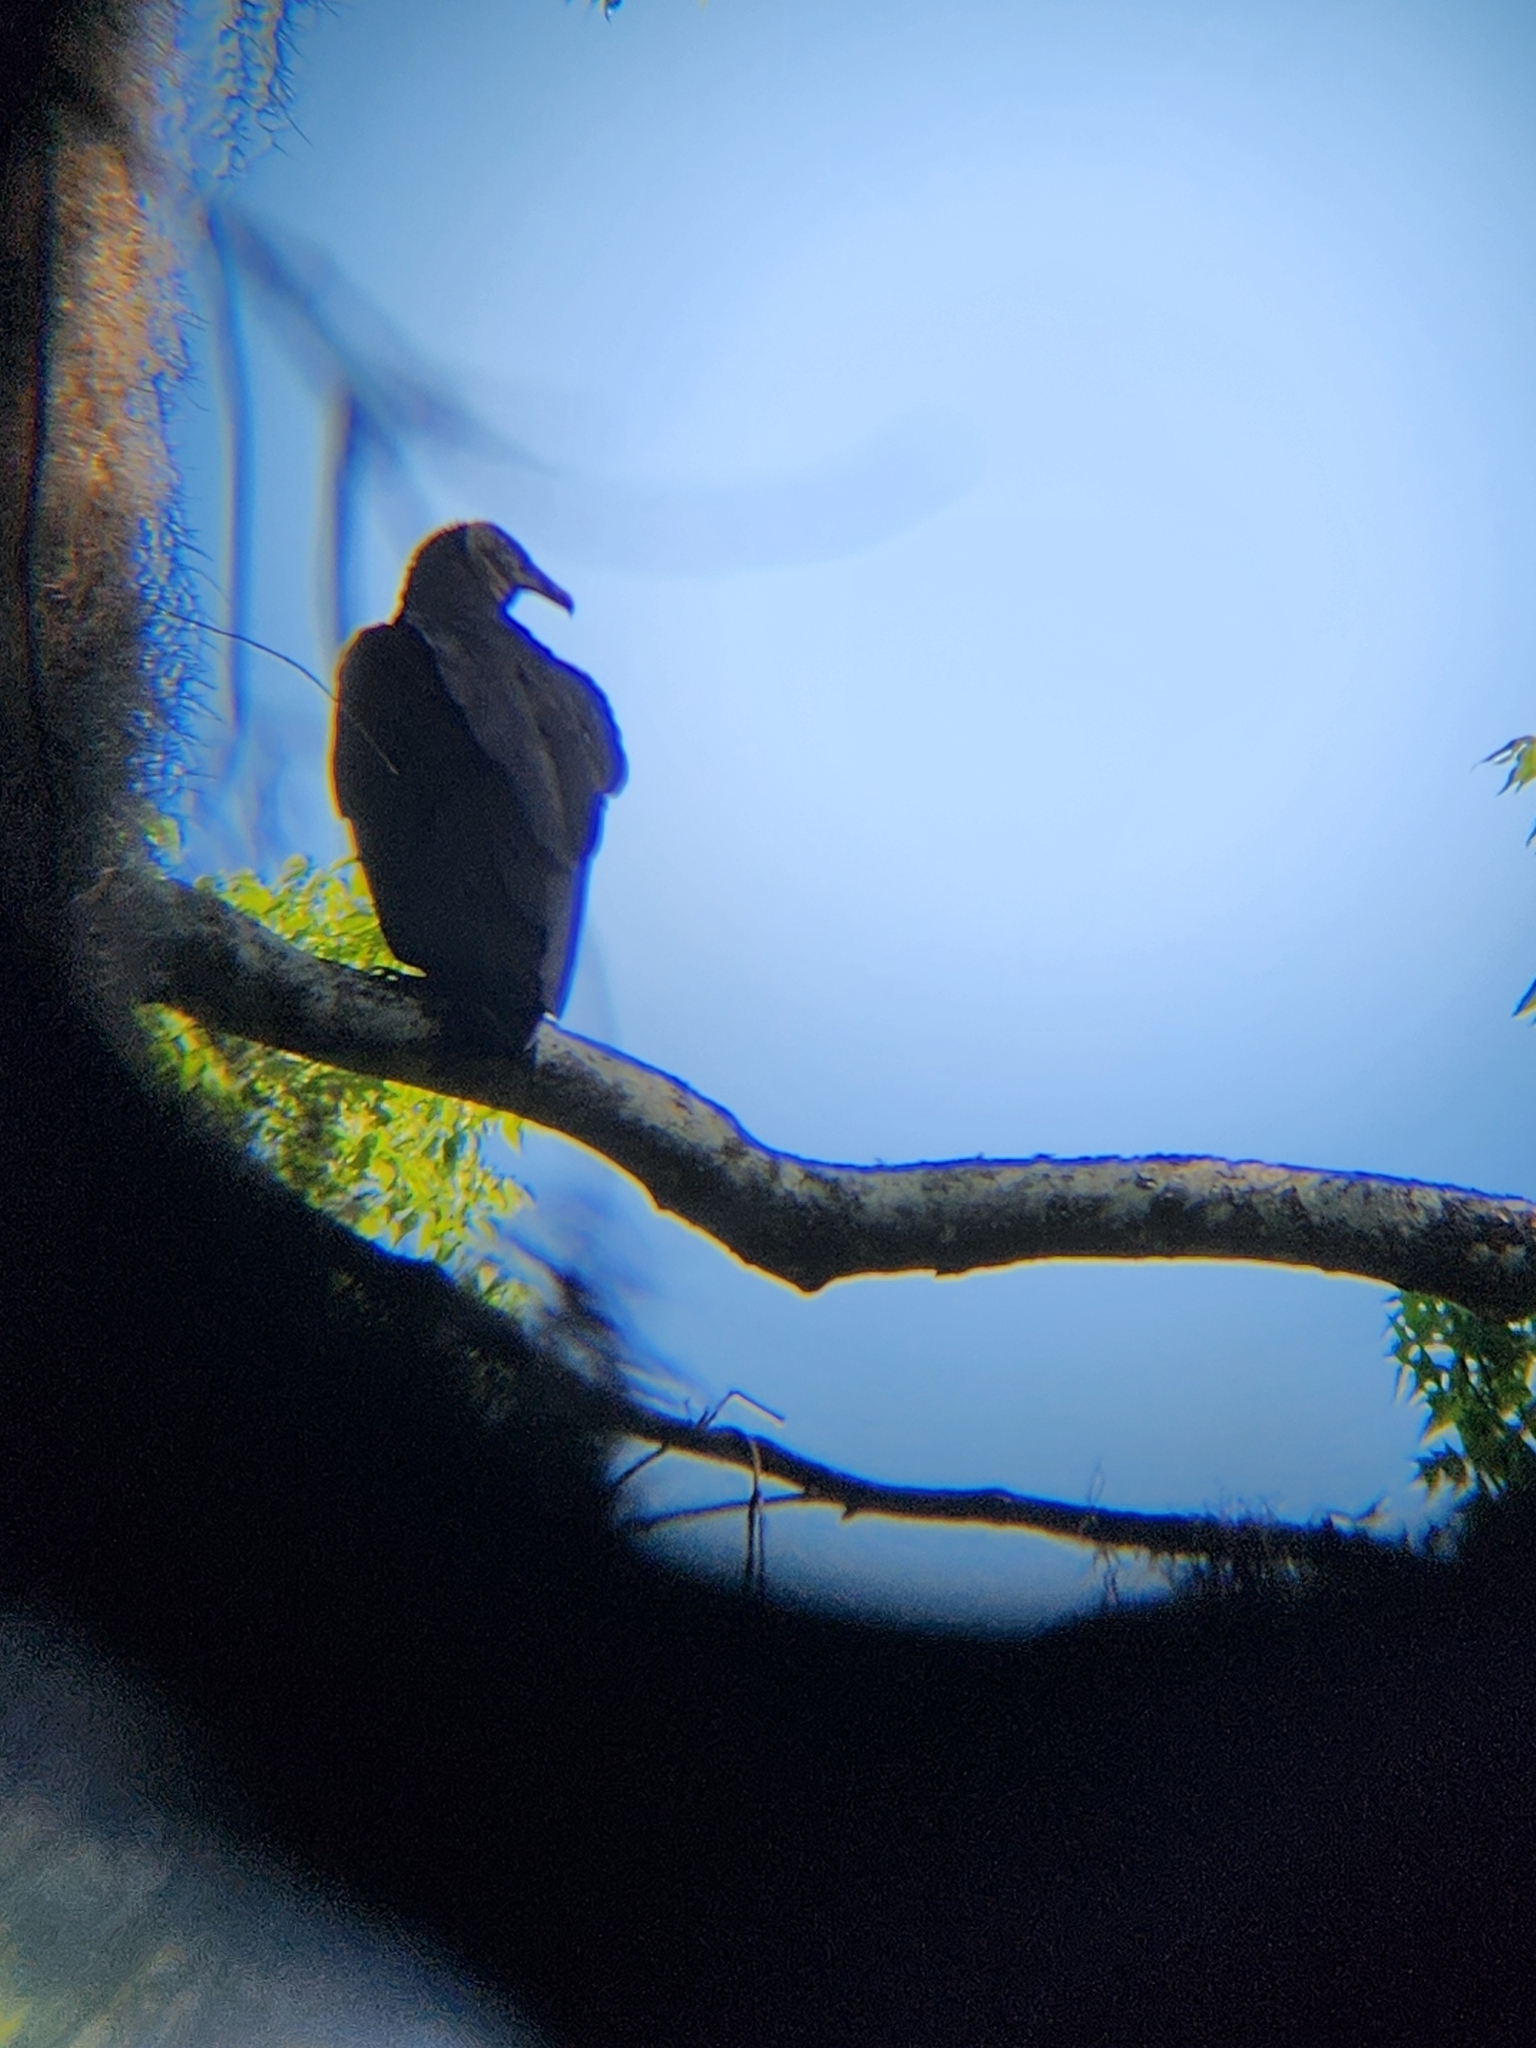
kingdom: Animalia
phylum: Chordata
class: Aves
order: Accipitriformes
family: Cathartidae
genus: Coragyps
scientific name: Coragyps atratus
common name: Black vulture
